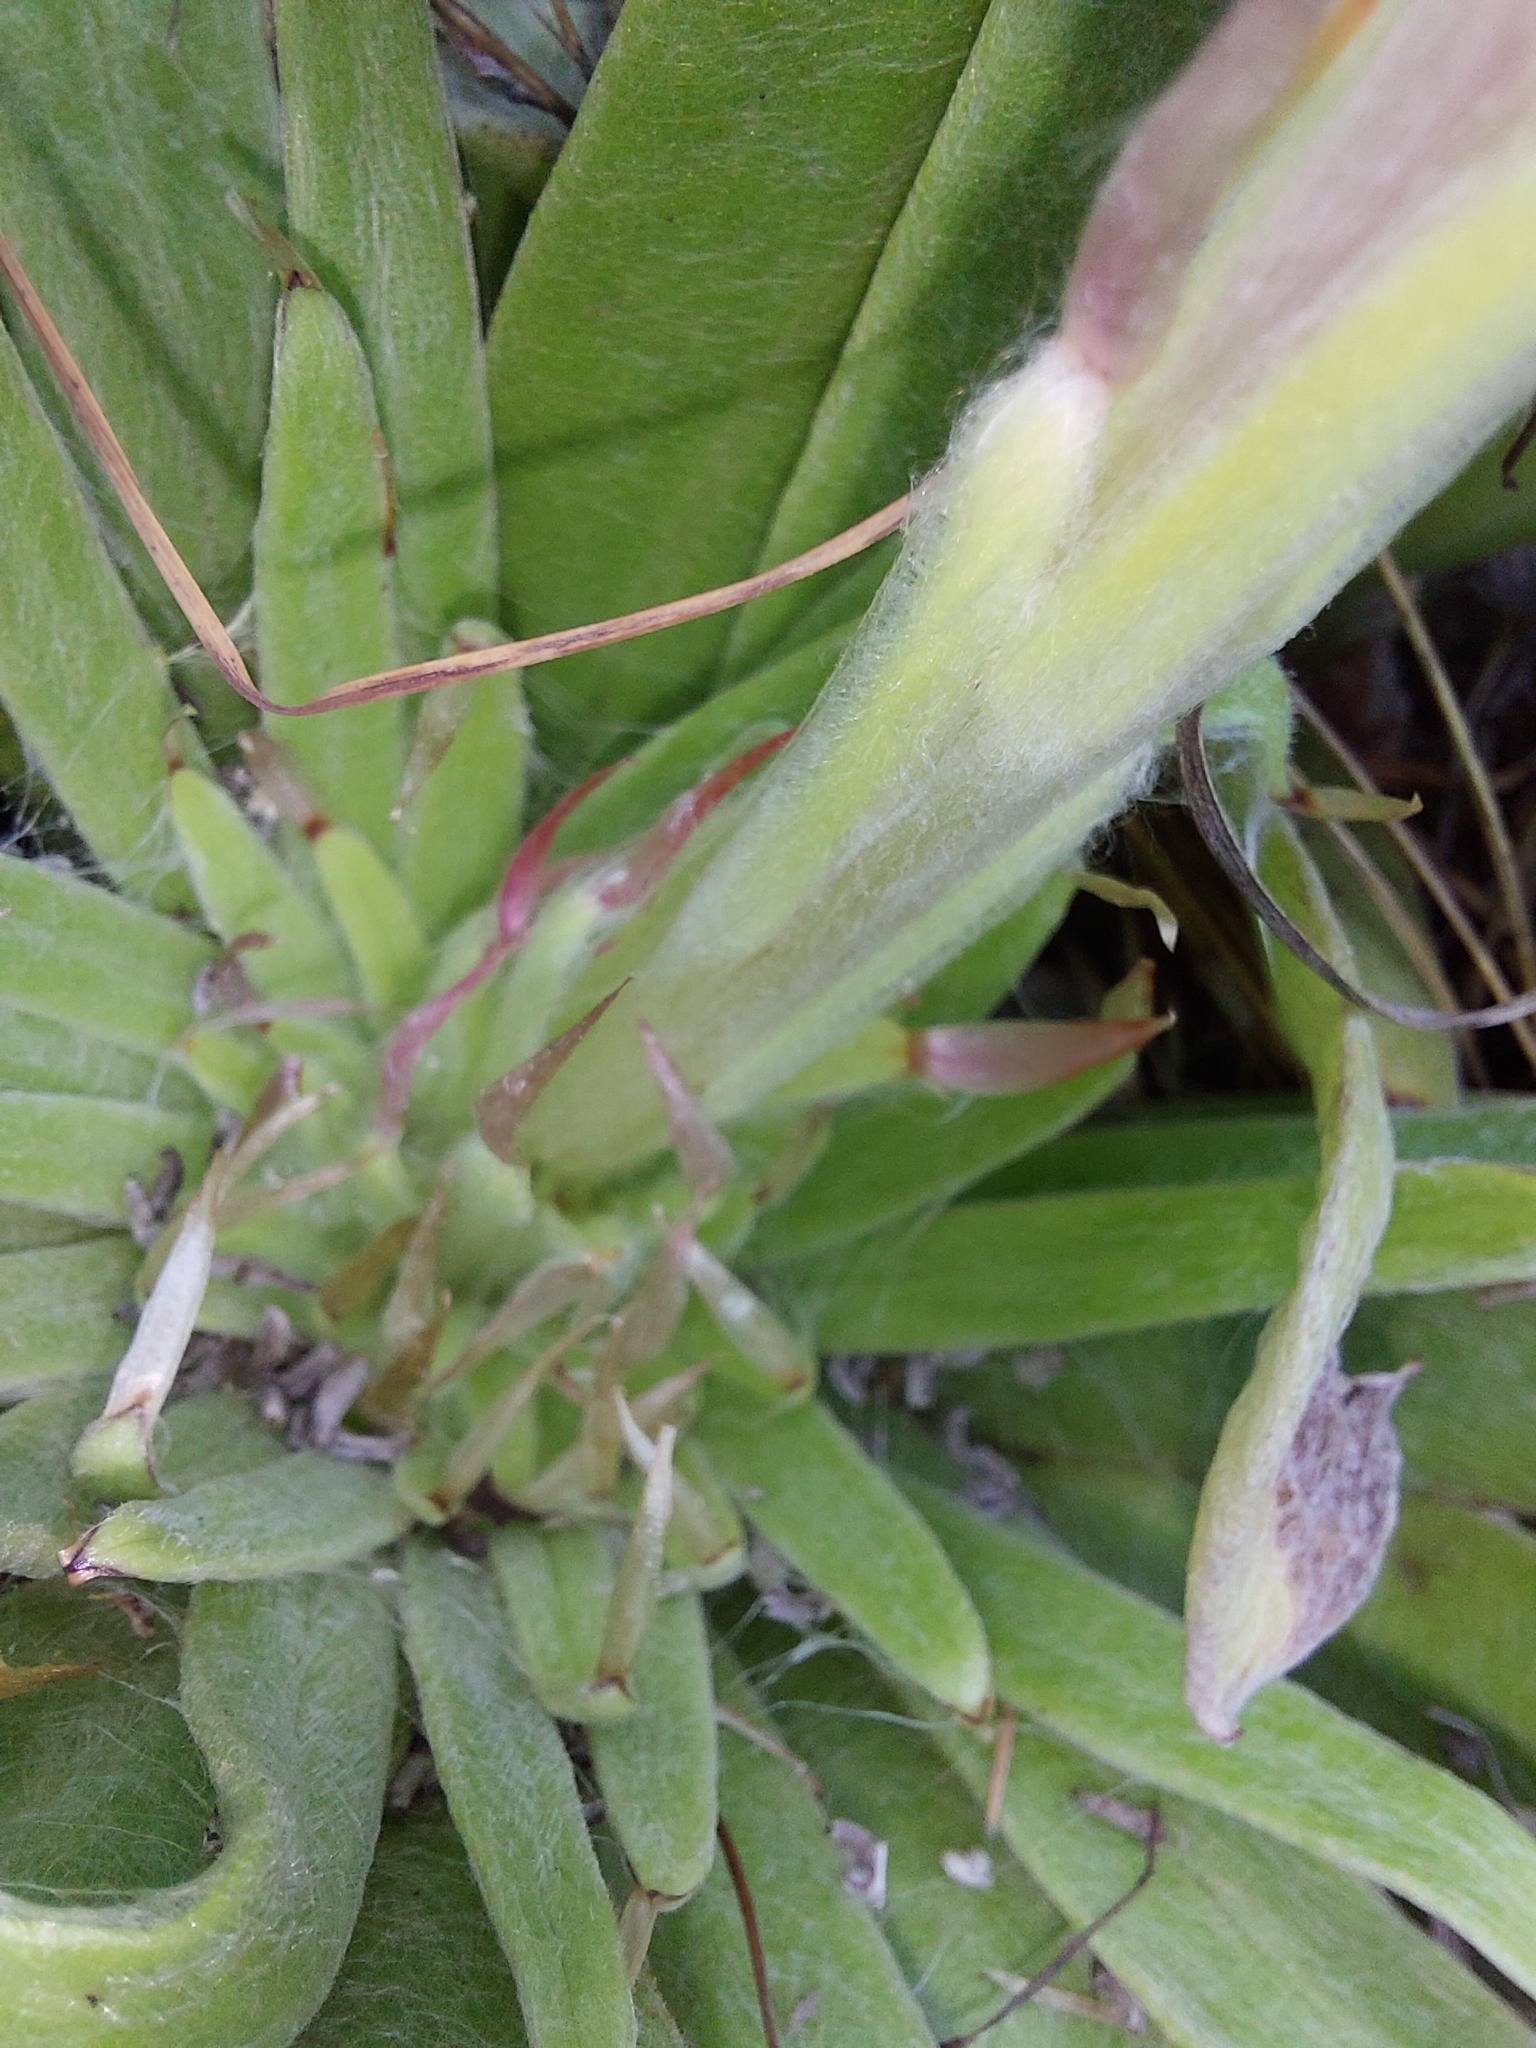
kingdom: Plantae
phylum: Tracheophyta
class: Magnoliopsida
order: Asterales
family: Asteraceae
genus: Helichrysum
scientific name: Helichrysum ecklonis
